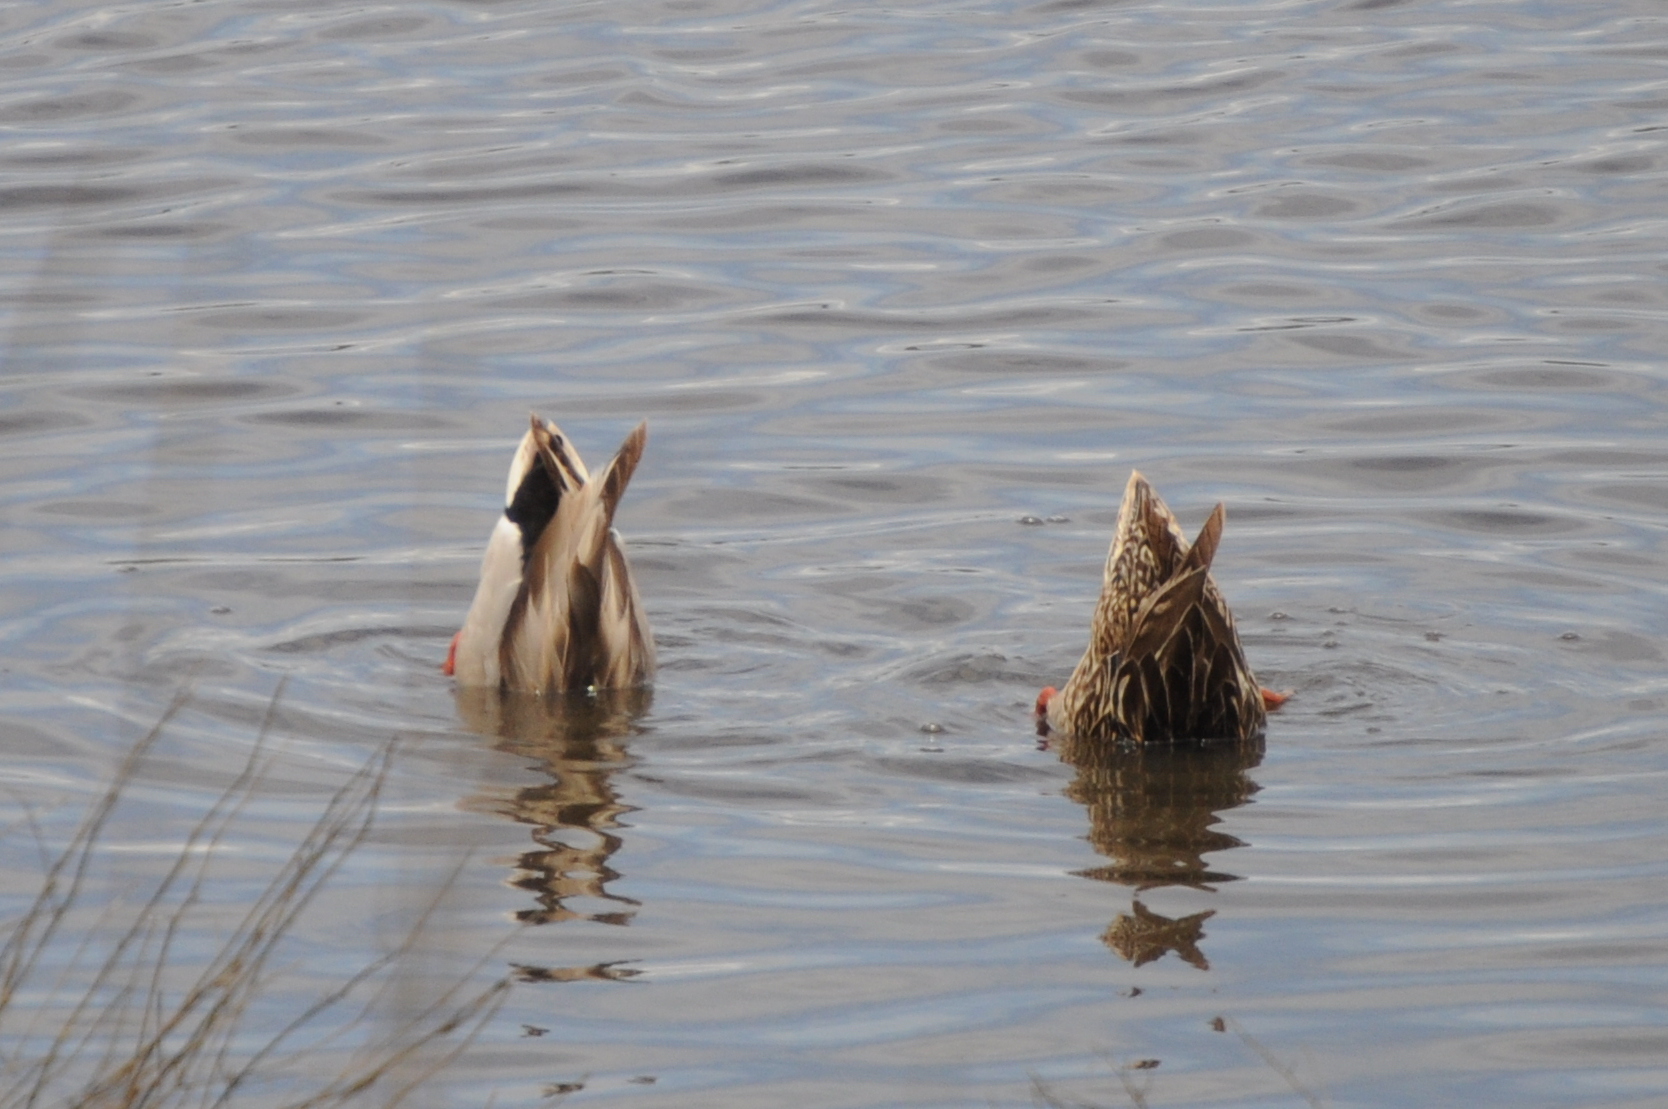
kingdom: Animalia
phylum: Chordata
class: Aves
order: Anseriformes
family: Anatidae
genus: Anas
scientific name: Anas platyrhynchos
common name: Mallard
